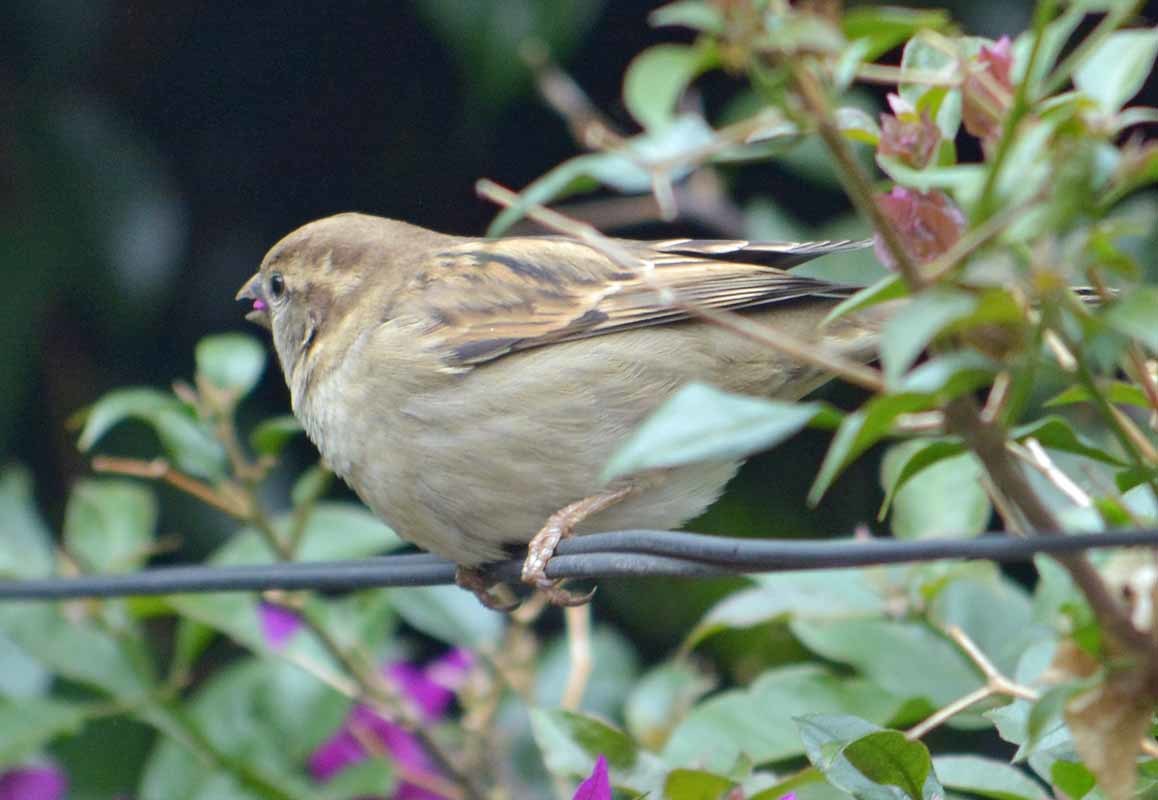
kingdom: Animalia
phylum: Chordata
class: Aves
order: Passeriformes
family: Passeridae
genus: Passer
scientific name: Passer domesticus
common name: House sparrow
